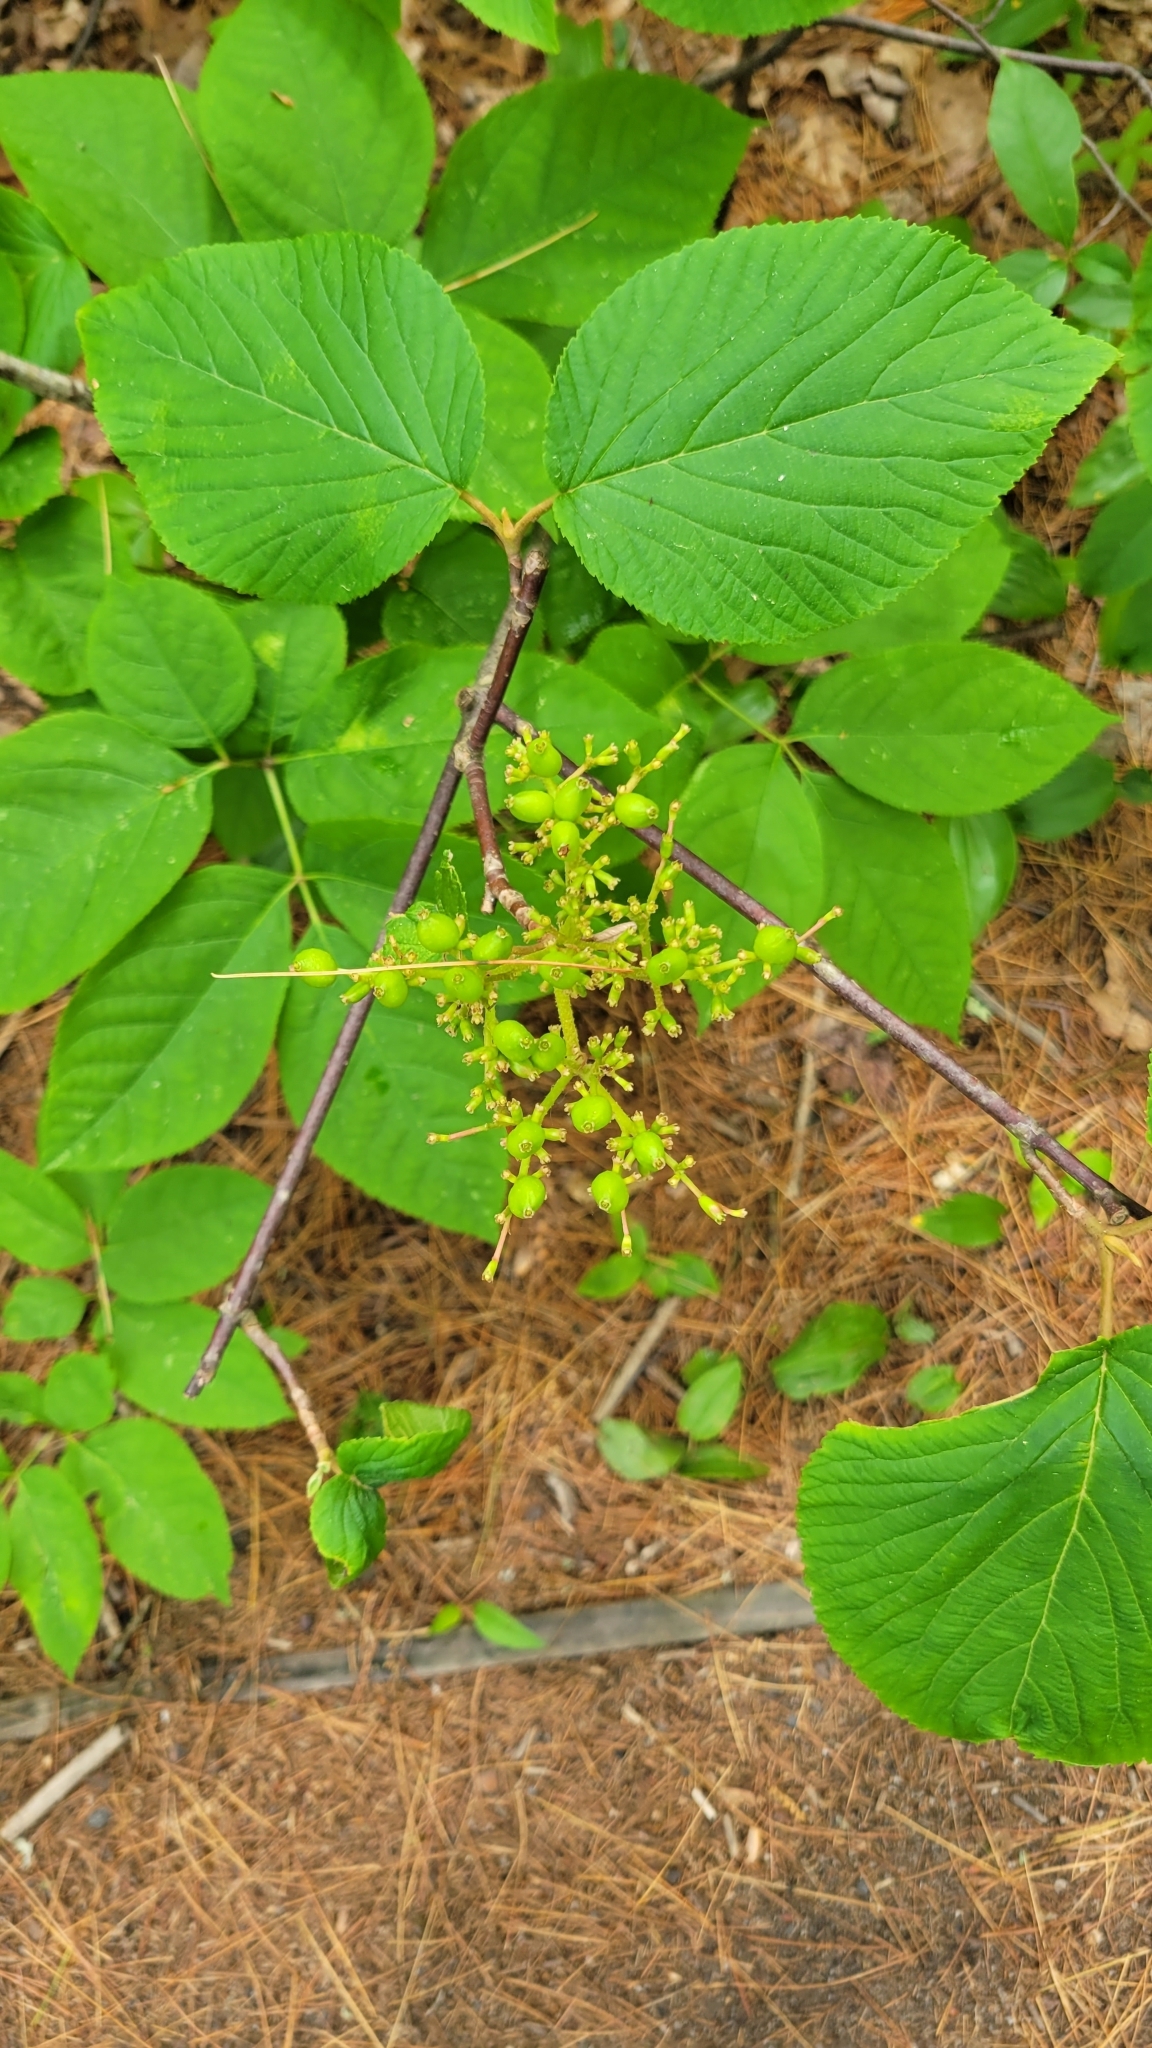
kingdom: Plantae
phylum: Tracheophyta
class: Magnoliopsida
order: Dipsacales
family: Viburnaceae
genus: Viburnum
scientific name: Viburnum lantanoides
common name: Hobblebush
